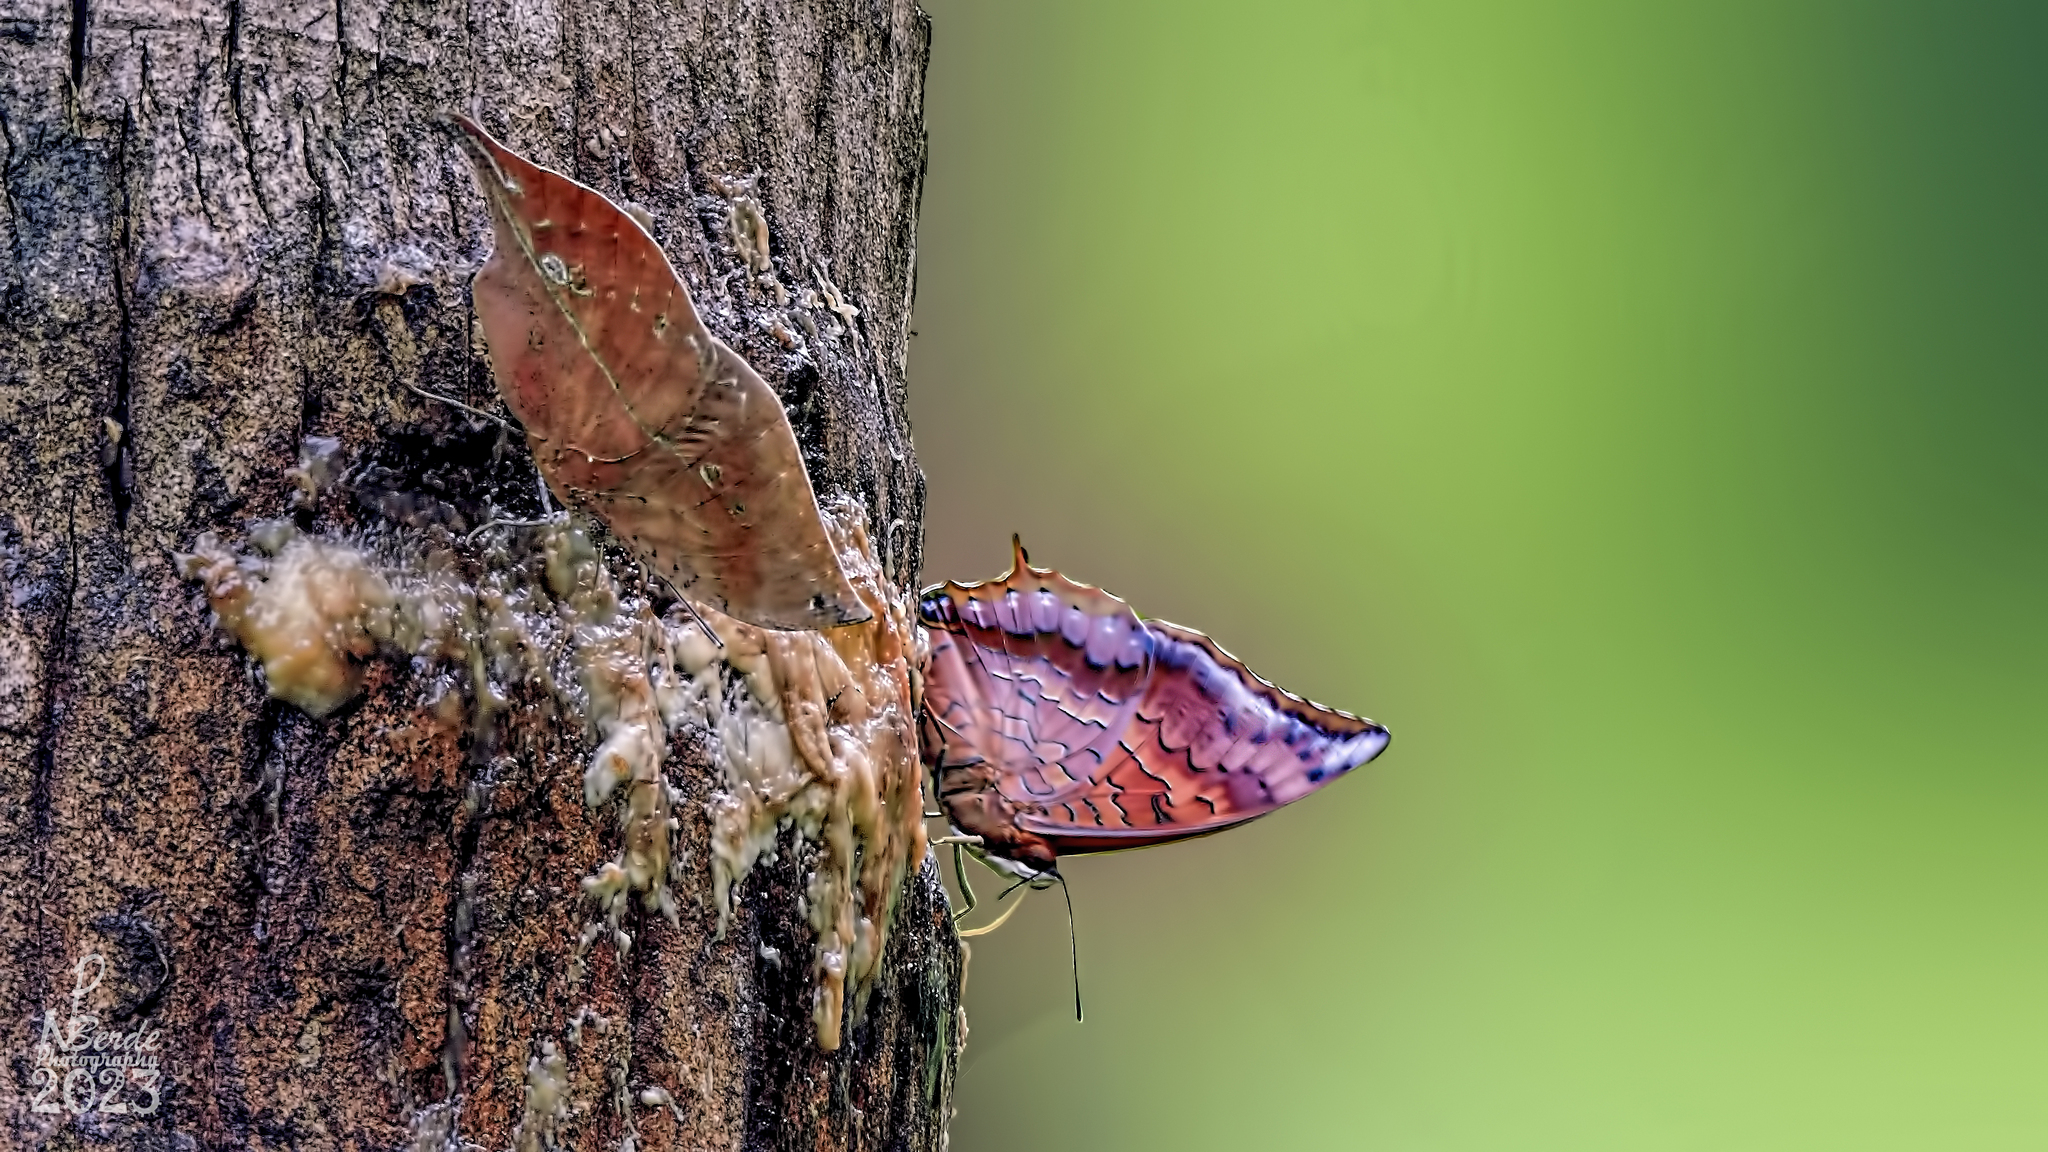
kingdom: Animalia
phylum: Arthropoda
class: Insecta
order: Lepidoptera
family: Nymphalidae
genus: Kallima
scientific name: Kallima horsfieldii
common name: Sahyadri blue oakleaf
